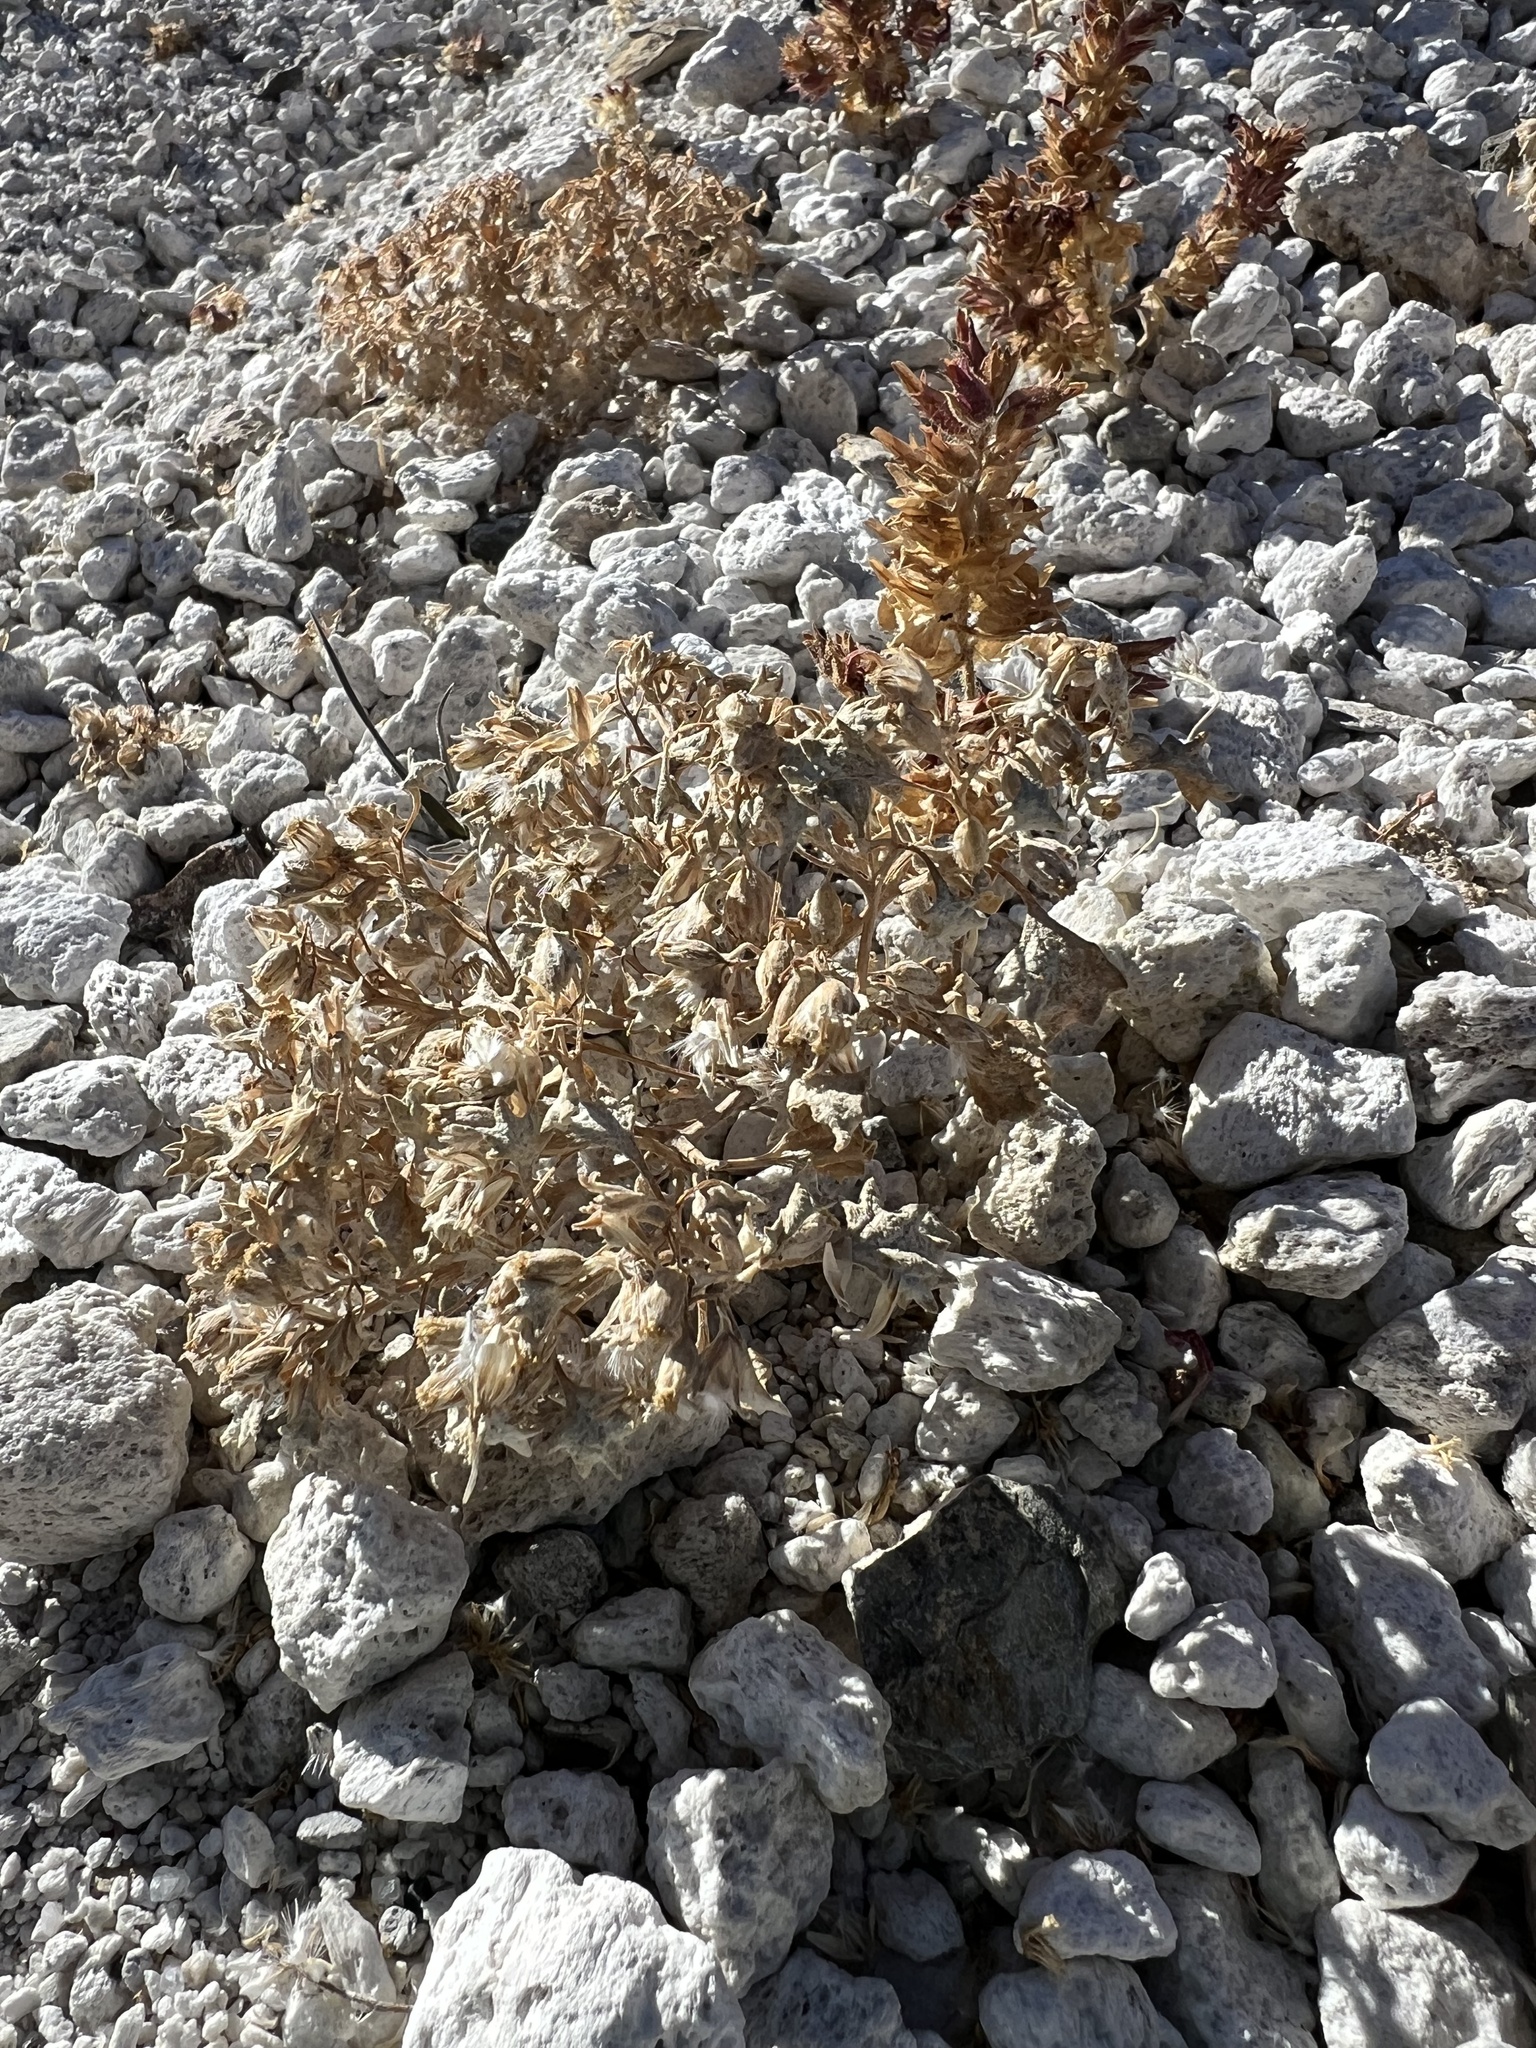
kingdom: Plantae
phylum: Tracheophyta
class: Magnoliopsida
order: Asterales
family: Asteraceae
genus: Psathyrotes
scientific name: Psathyrotes annua
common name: Mealy rosettes
